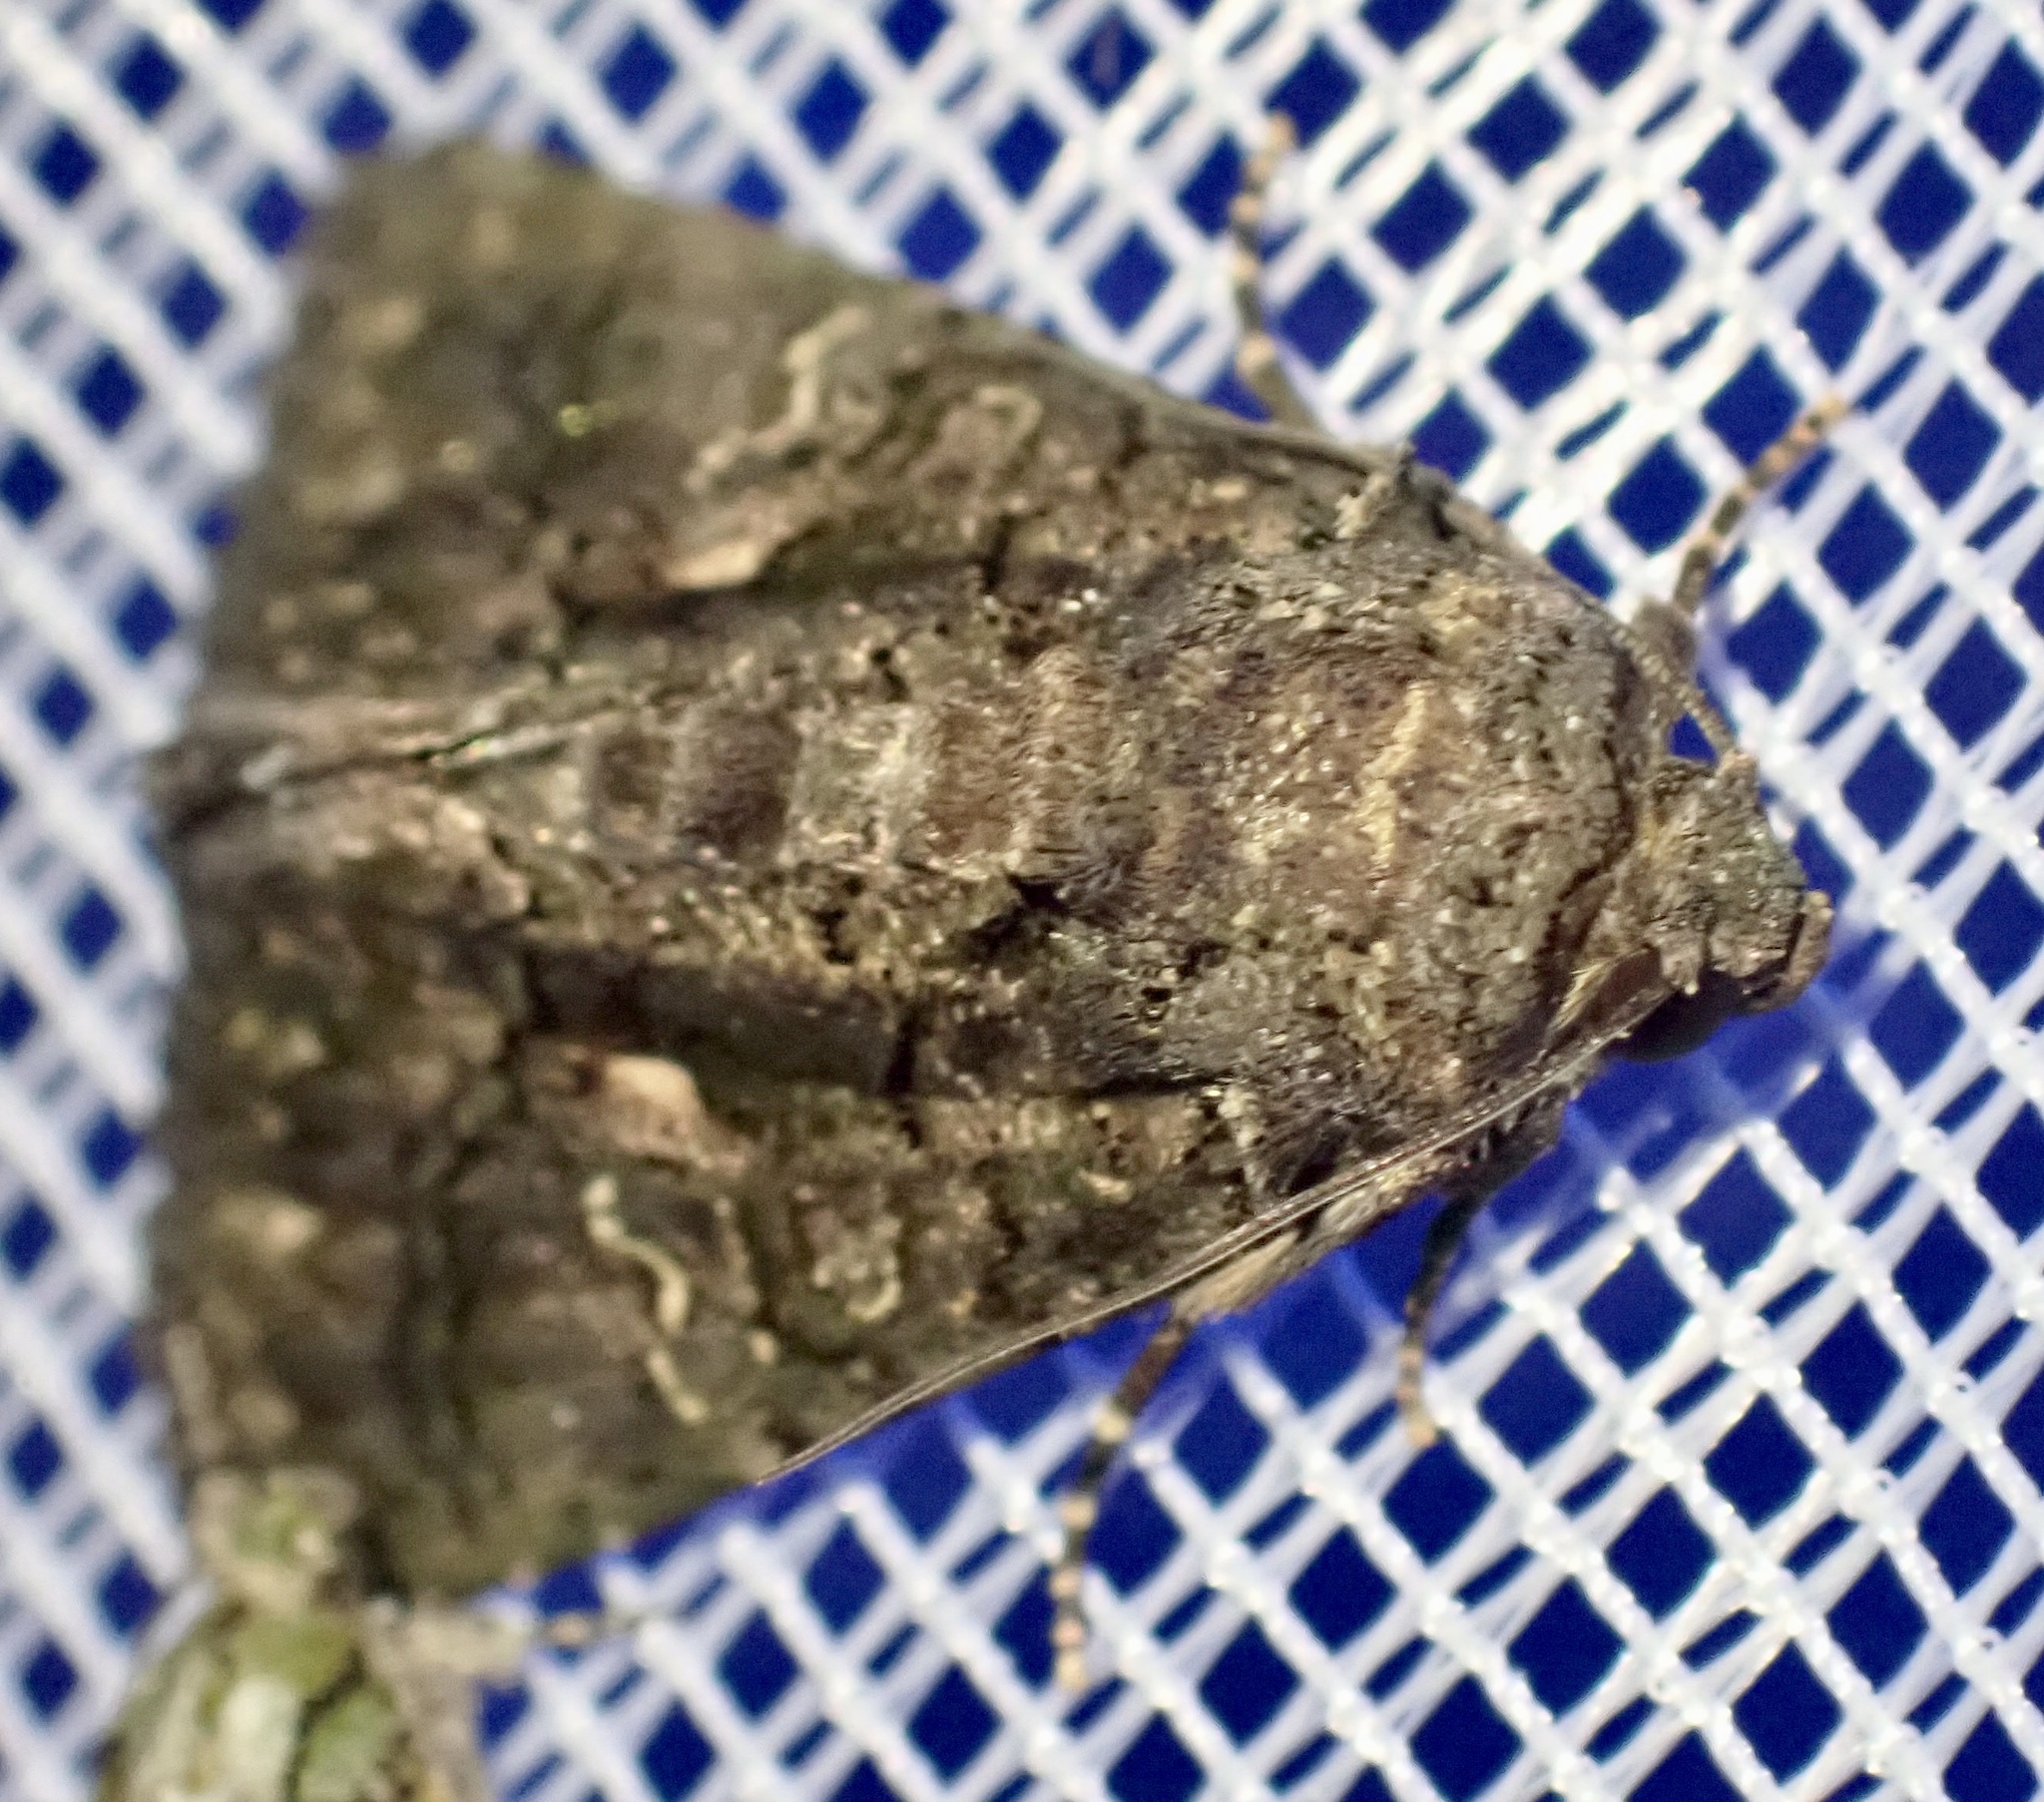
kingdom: Animalia
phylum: Arthropoda
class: Insecta
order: Lepidoptera
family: Noctuidae
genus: Aedia
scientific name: Aedia leucomelas
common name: Sorcerer
